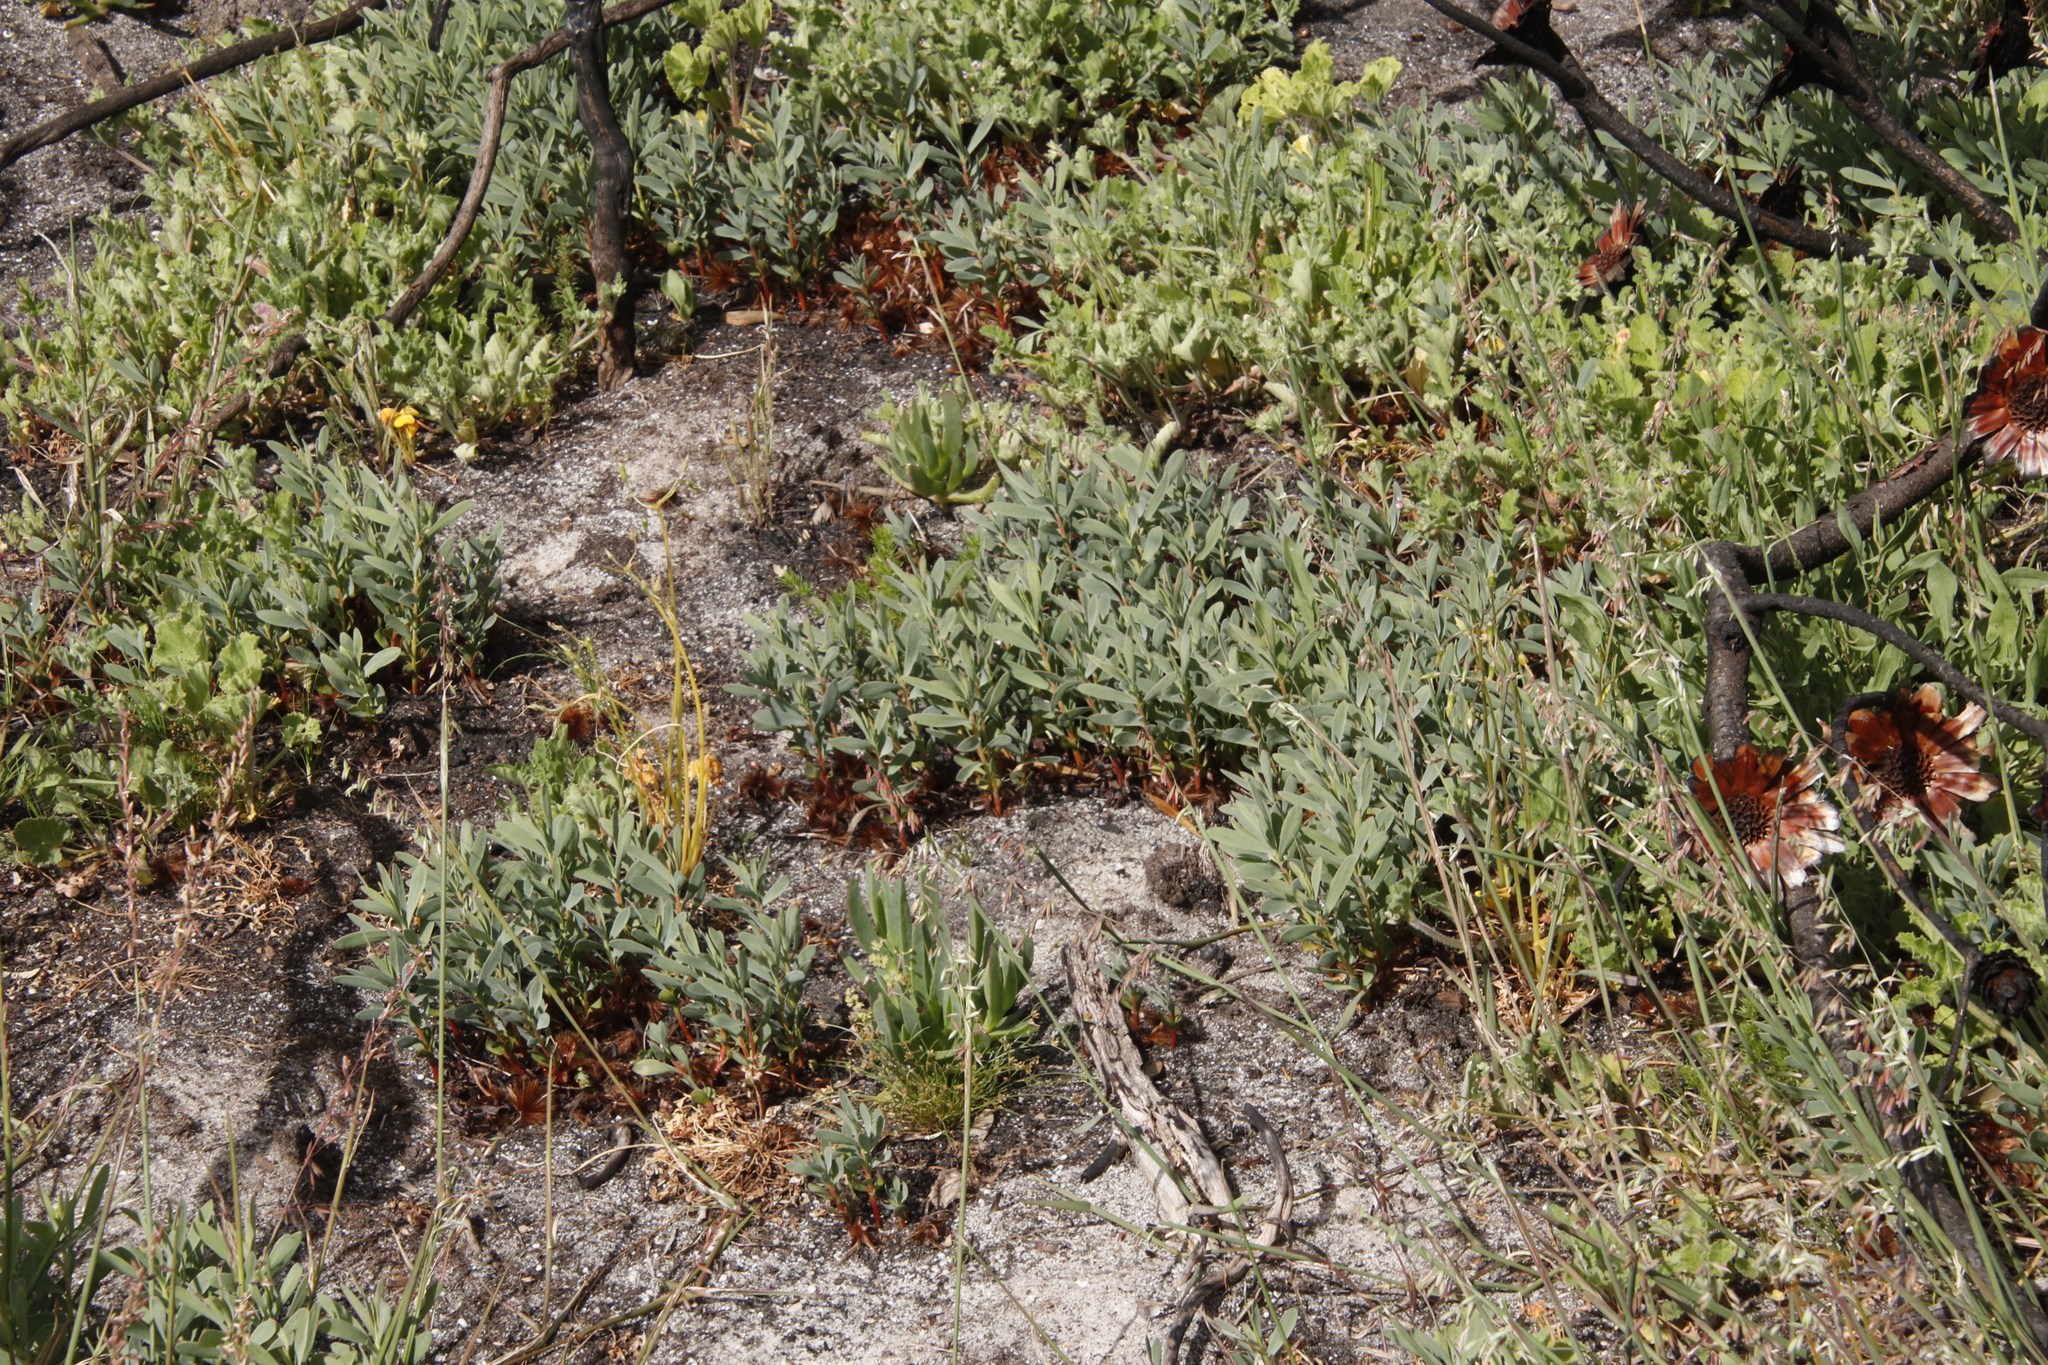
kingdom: Plantae
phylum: Tracheophyta
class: Magnoliopsida
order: Proteales
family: Proteaceae
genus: Protea
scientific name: Protea repens
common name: Sugarbush
